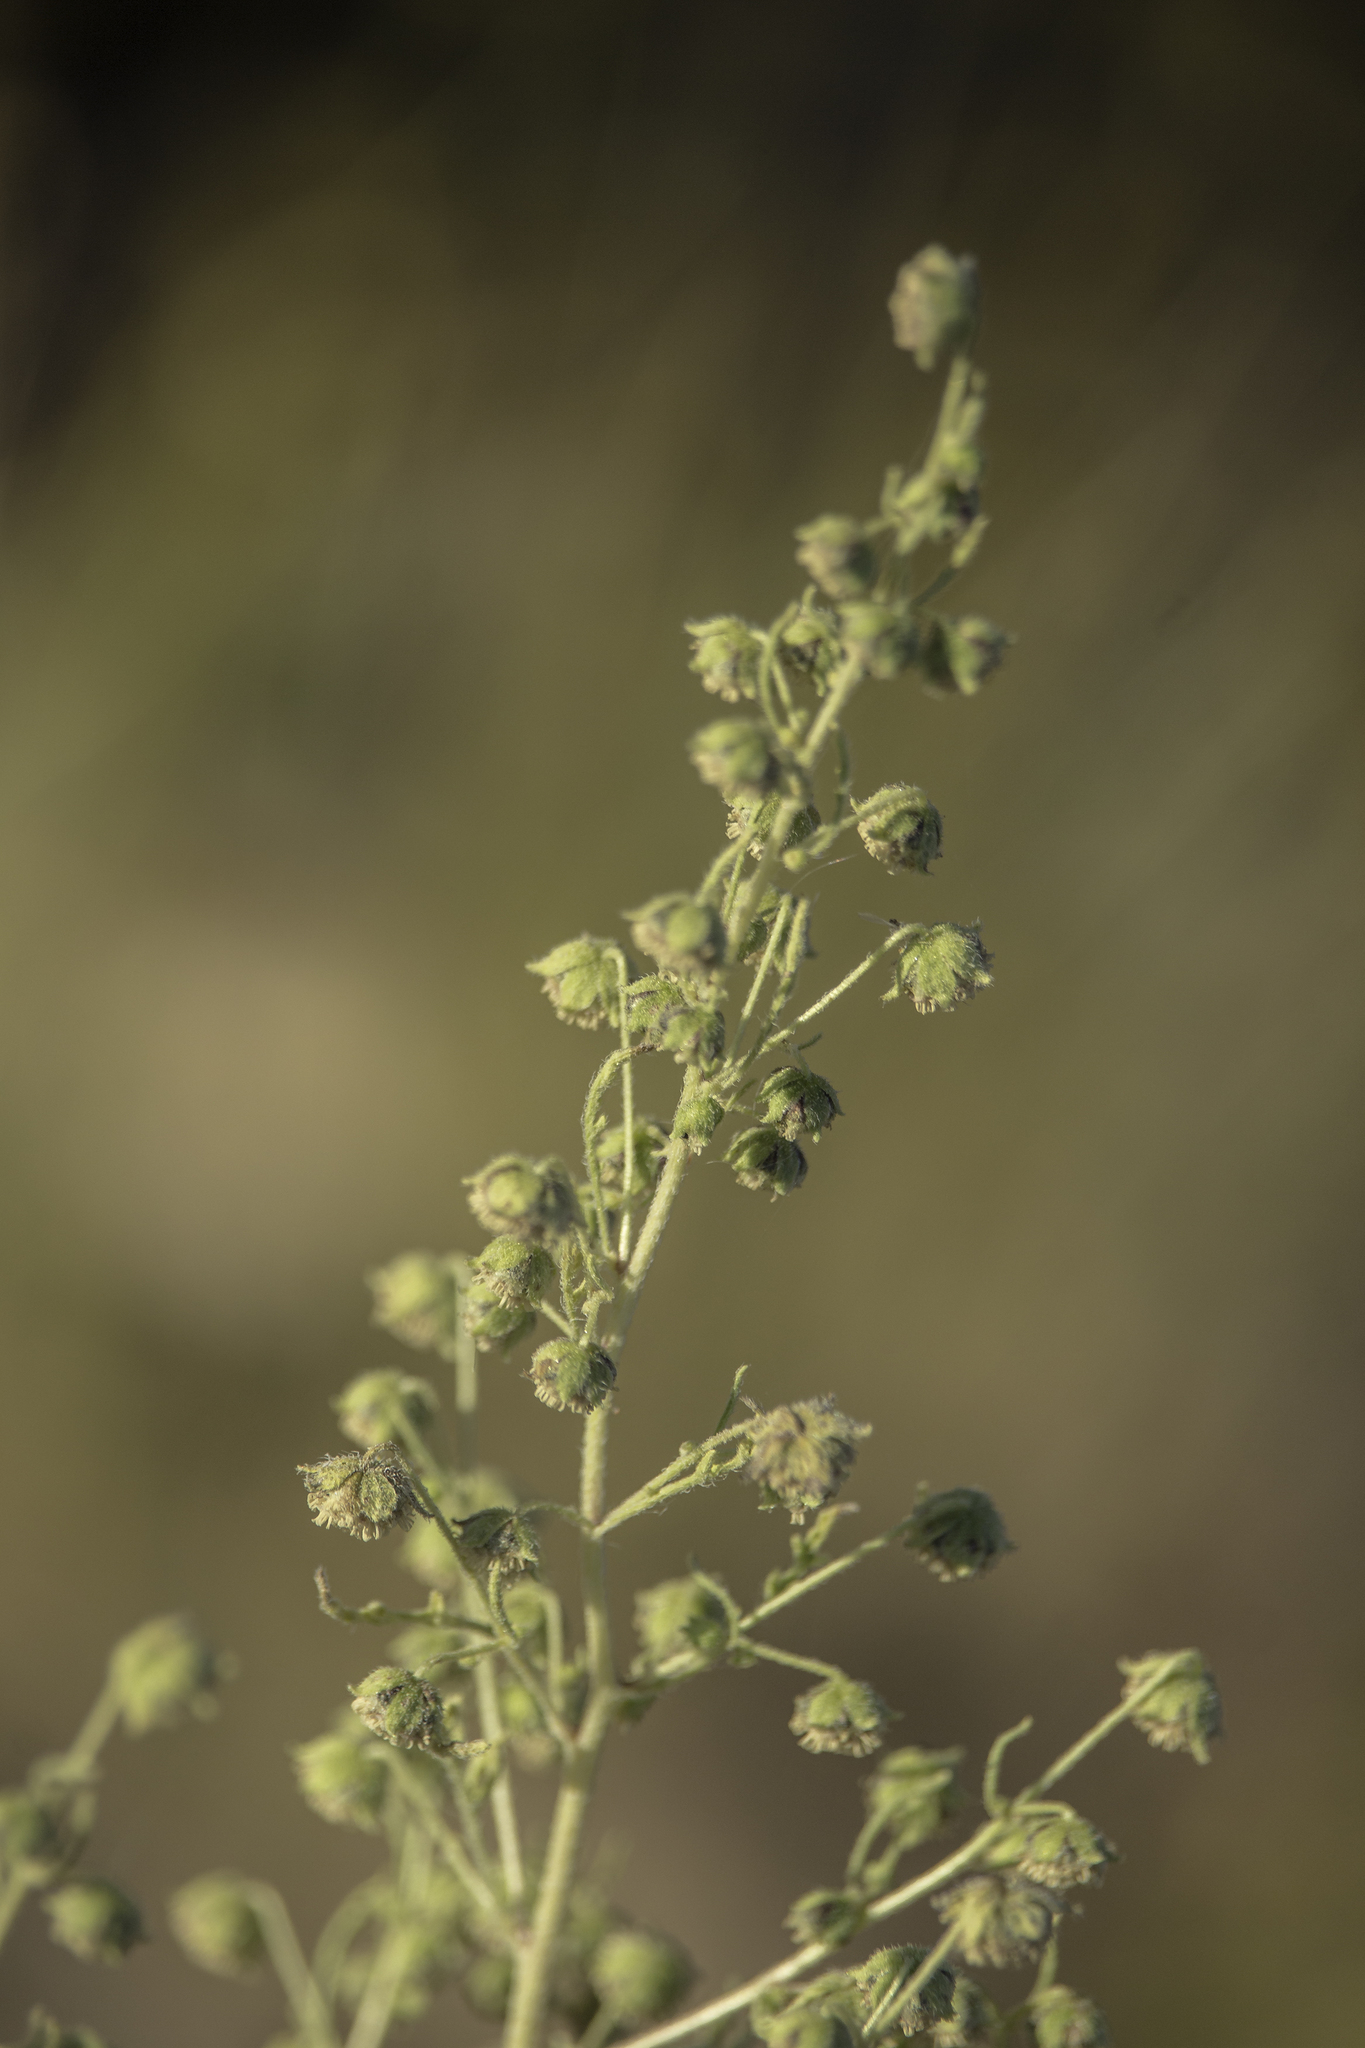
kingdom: Plantae
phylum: Tracheophyta
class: Magnoliopsida
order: Asterales
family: Asteraceae
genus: Hedosyne
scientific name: Hedosyne ambrosiifolia
